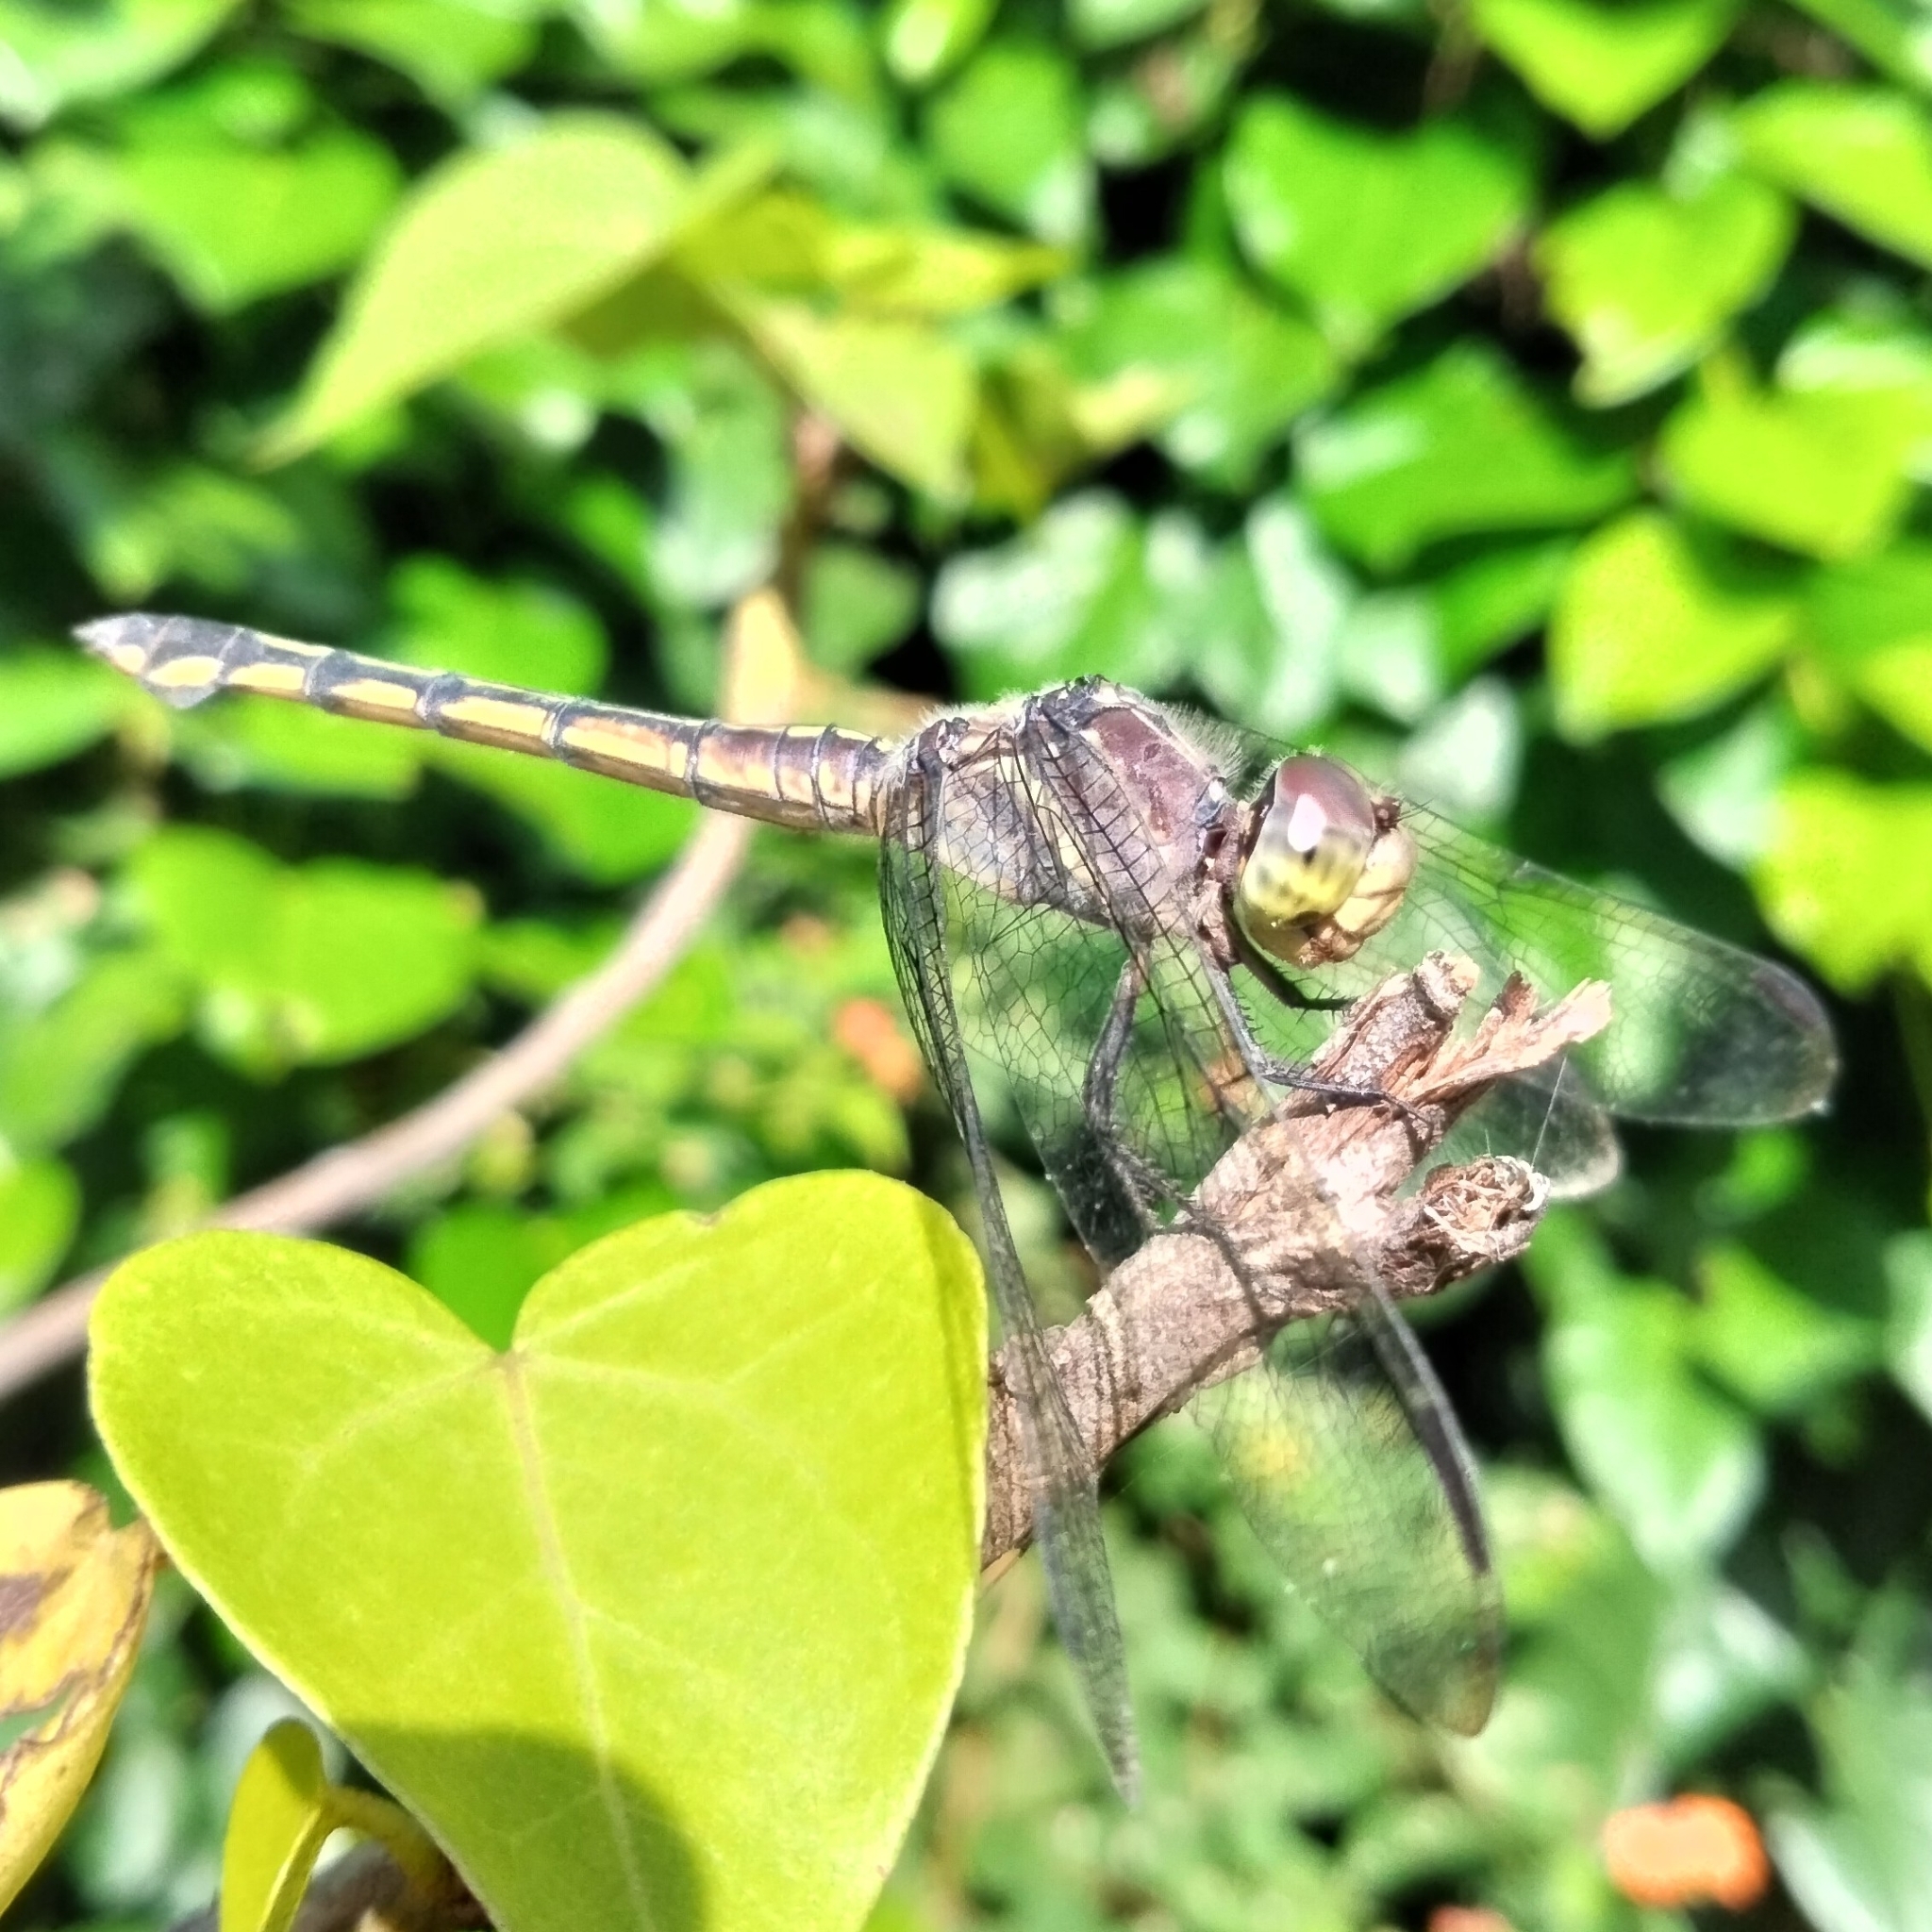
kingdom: Animalia
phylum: Arthropoda
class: Insecta
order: Odonata
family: Libellulidae
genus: Potamarcha
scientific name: Potamarcha congener
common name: Blue chaser
